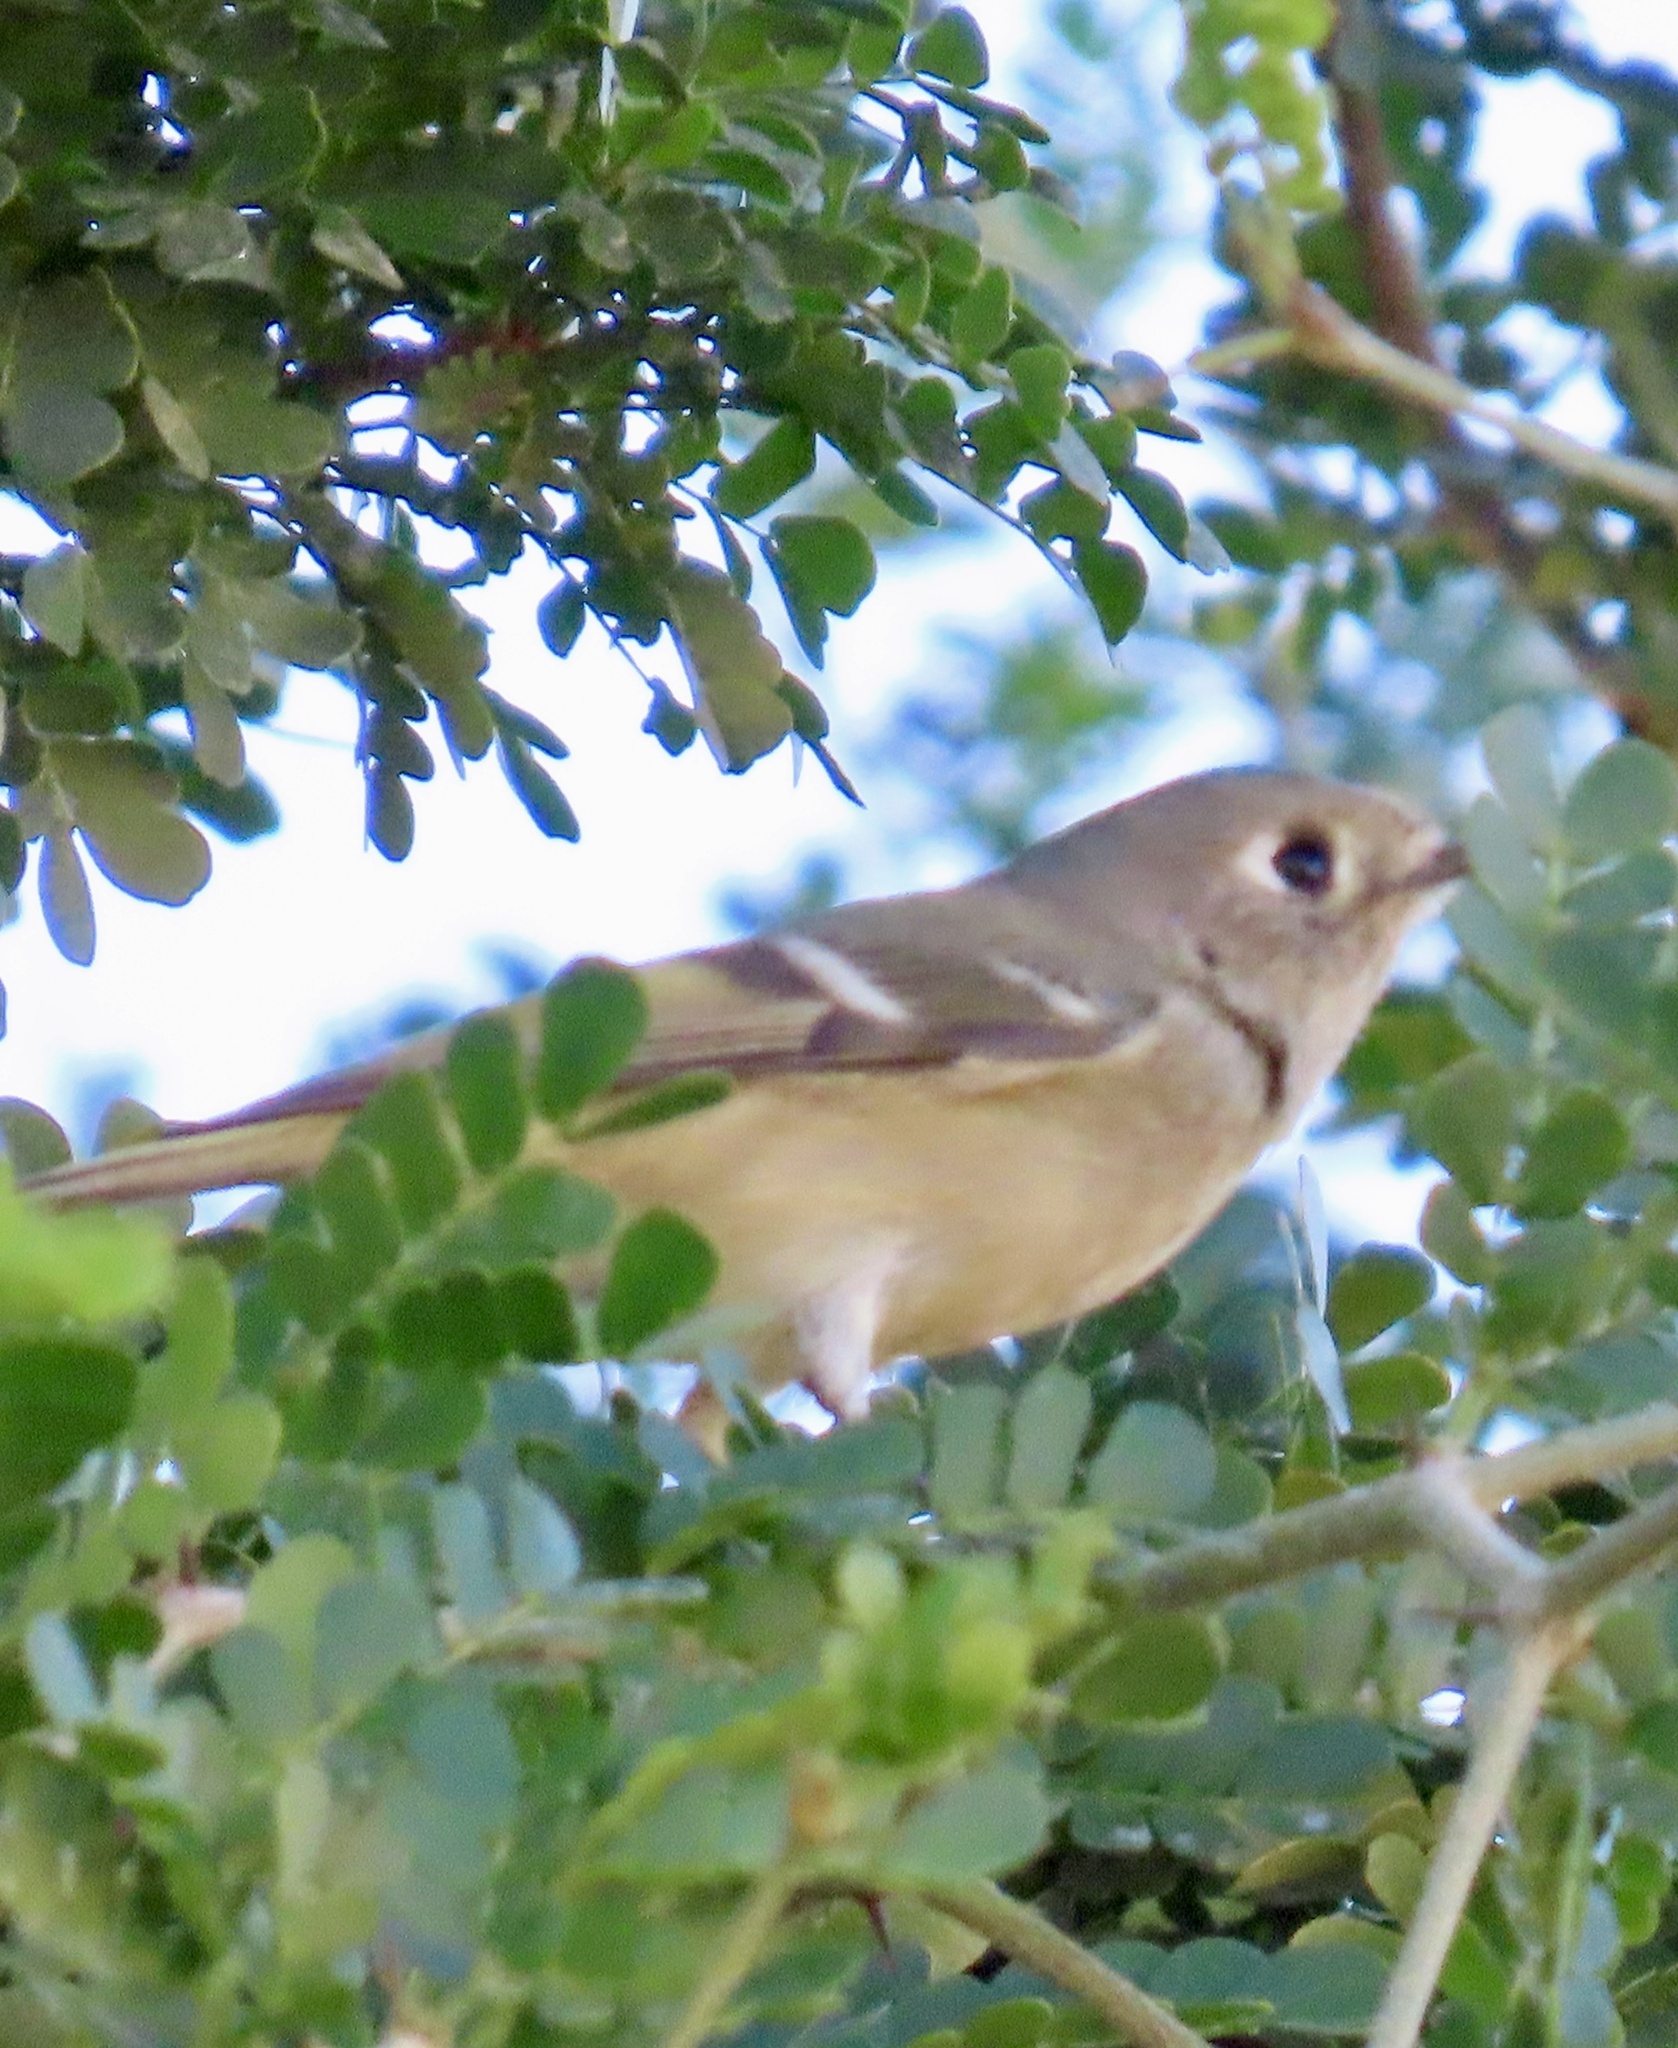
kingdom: Animalia
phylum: Chordata
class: Aves
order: Passeriformes
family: Regulidae
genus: Regulus
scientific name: Regulus calendula
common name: Ruby-crowned kinglet
